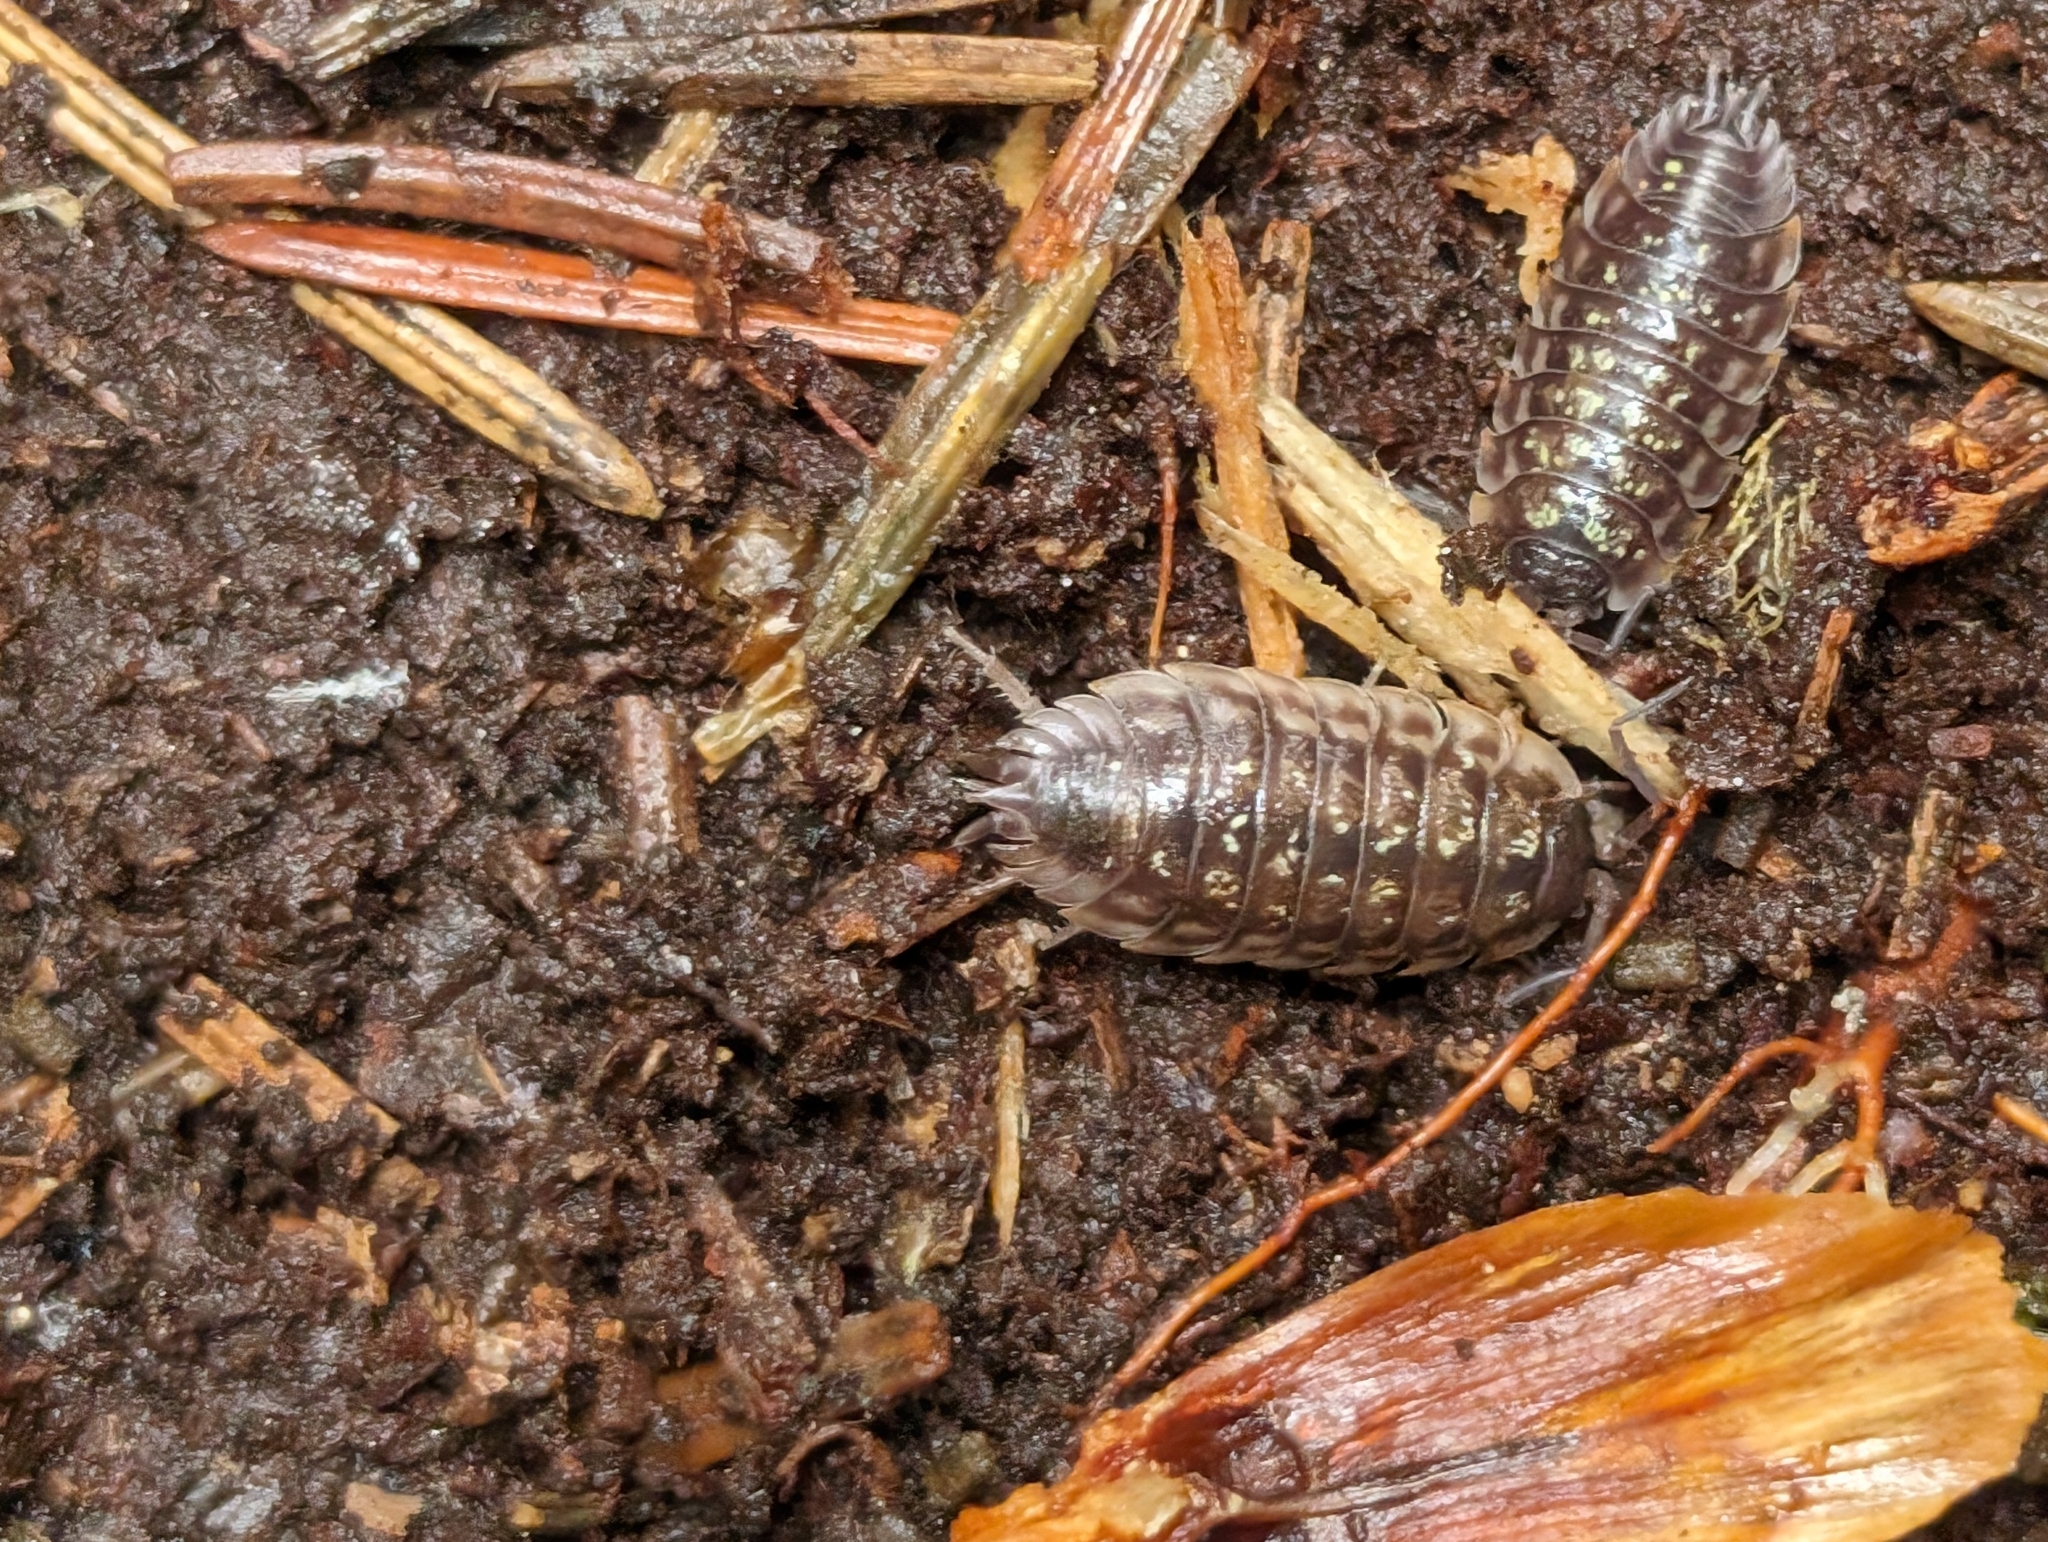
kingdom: Animalia
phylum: Arthropoda
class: Malacostraca
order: Isopoda
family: Oniscidae
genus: Oniscus
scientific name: Oniscus asellus
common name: Common shiny woodlouse
